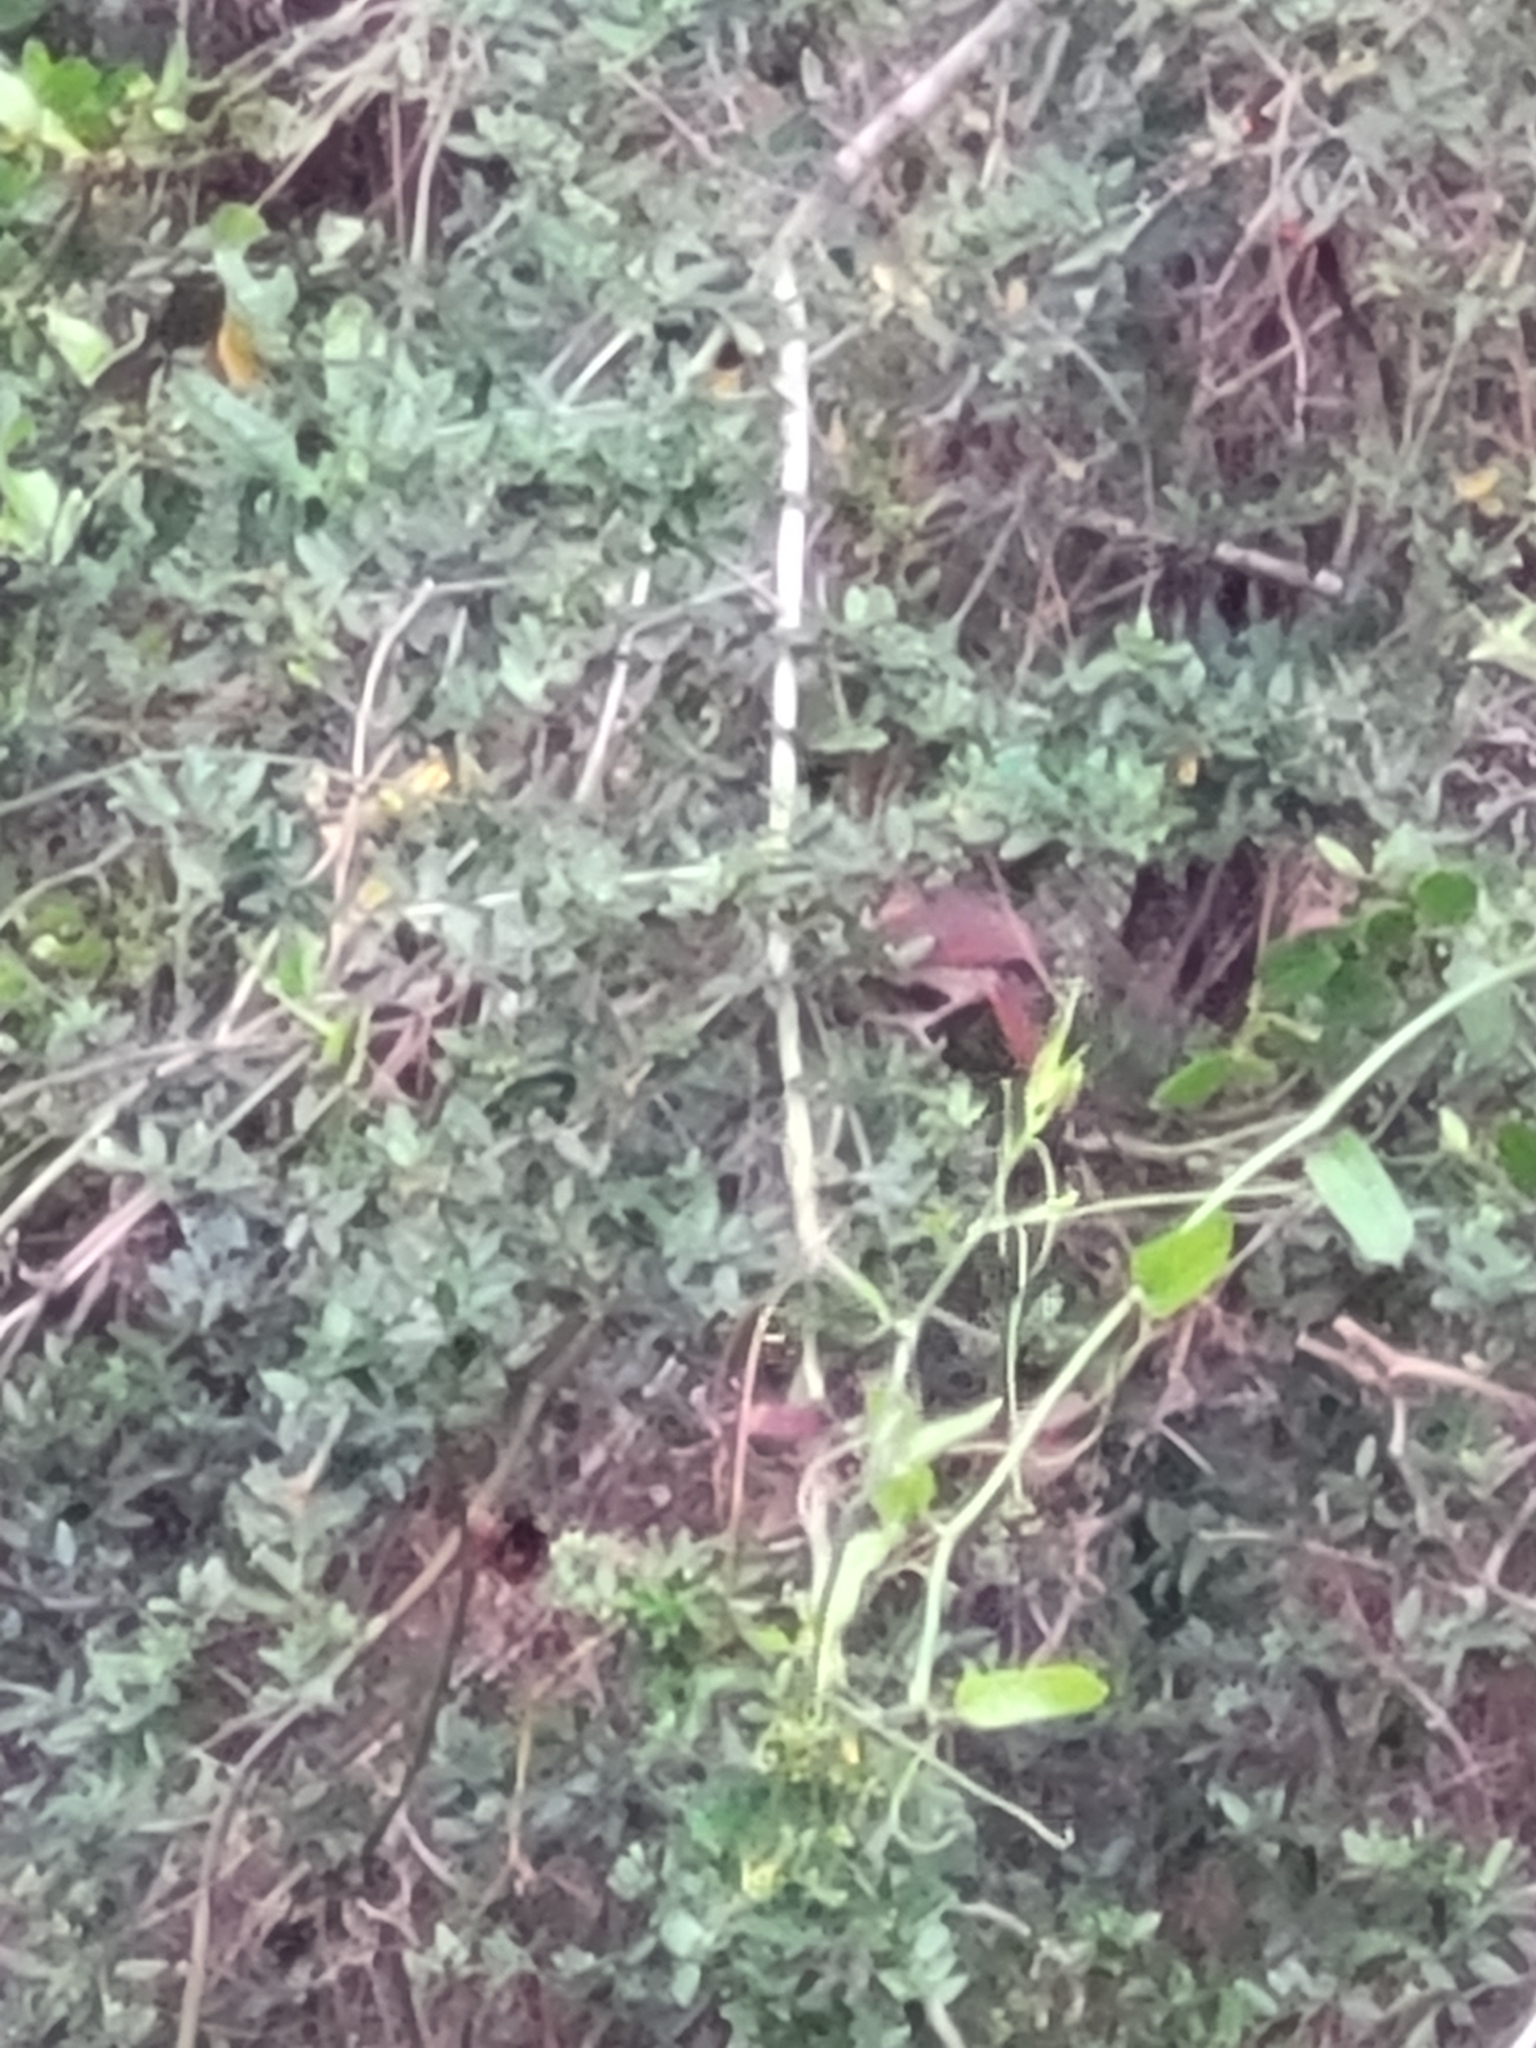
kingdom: Animalia
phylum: Chordata
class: Aves
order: Passeriformes
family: Cardinalidae
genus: Cardinalis
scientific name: Cardinalis cardinalis
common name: Northern cardinal
